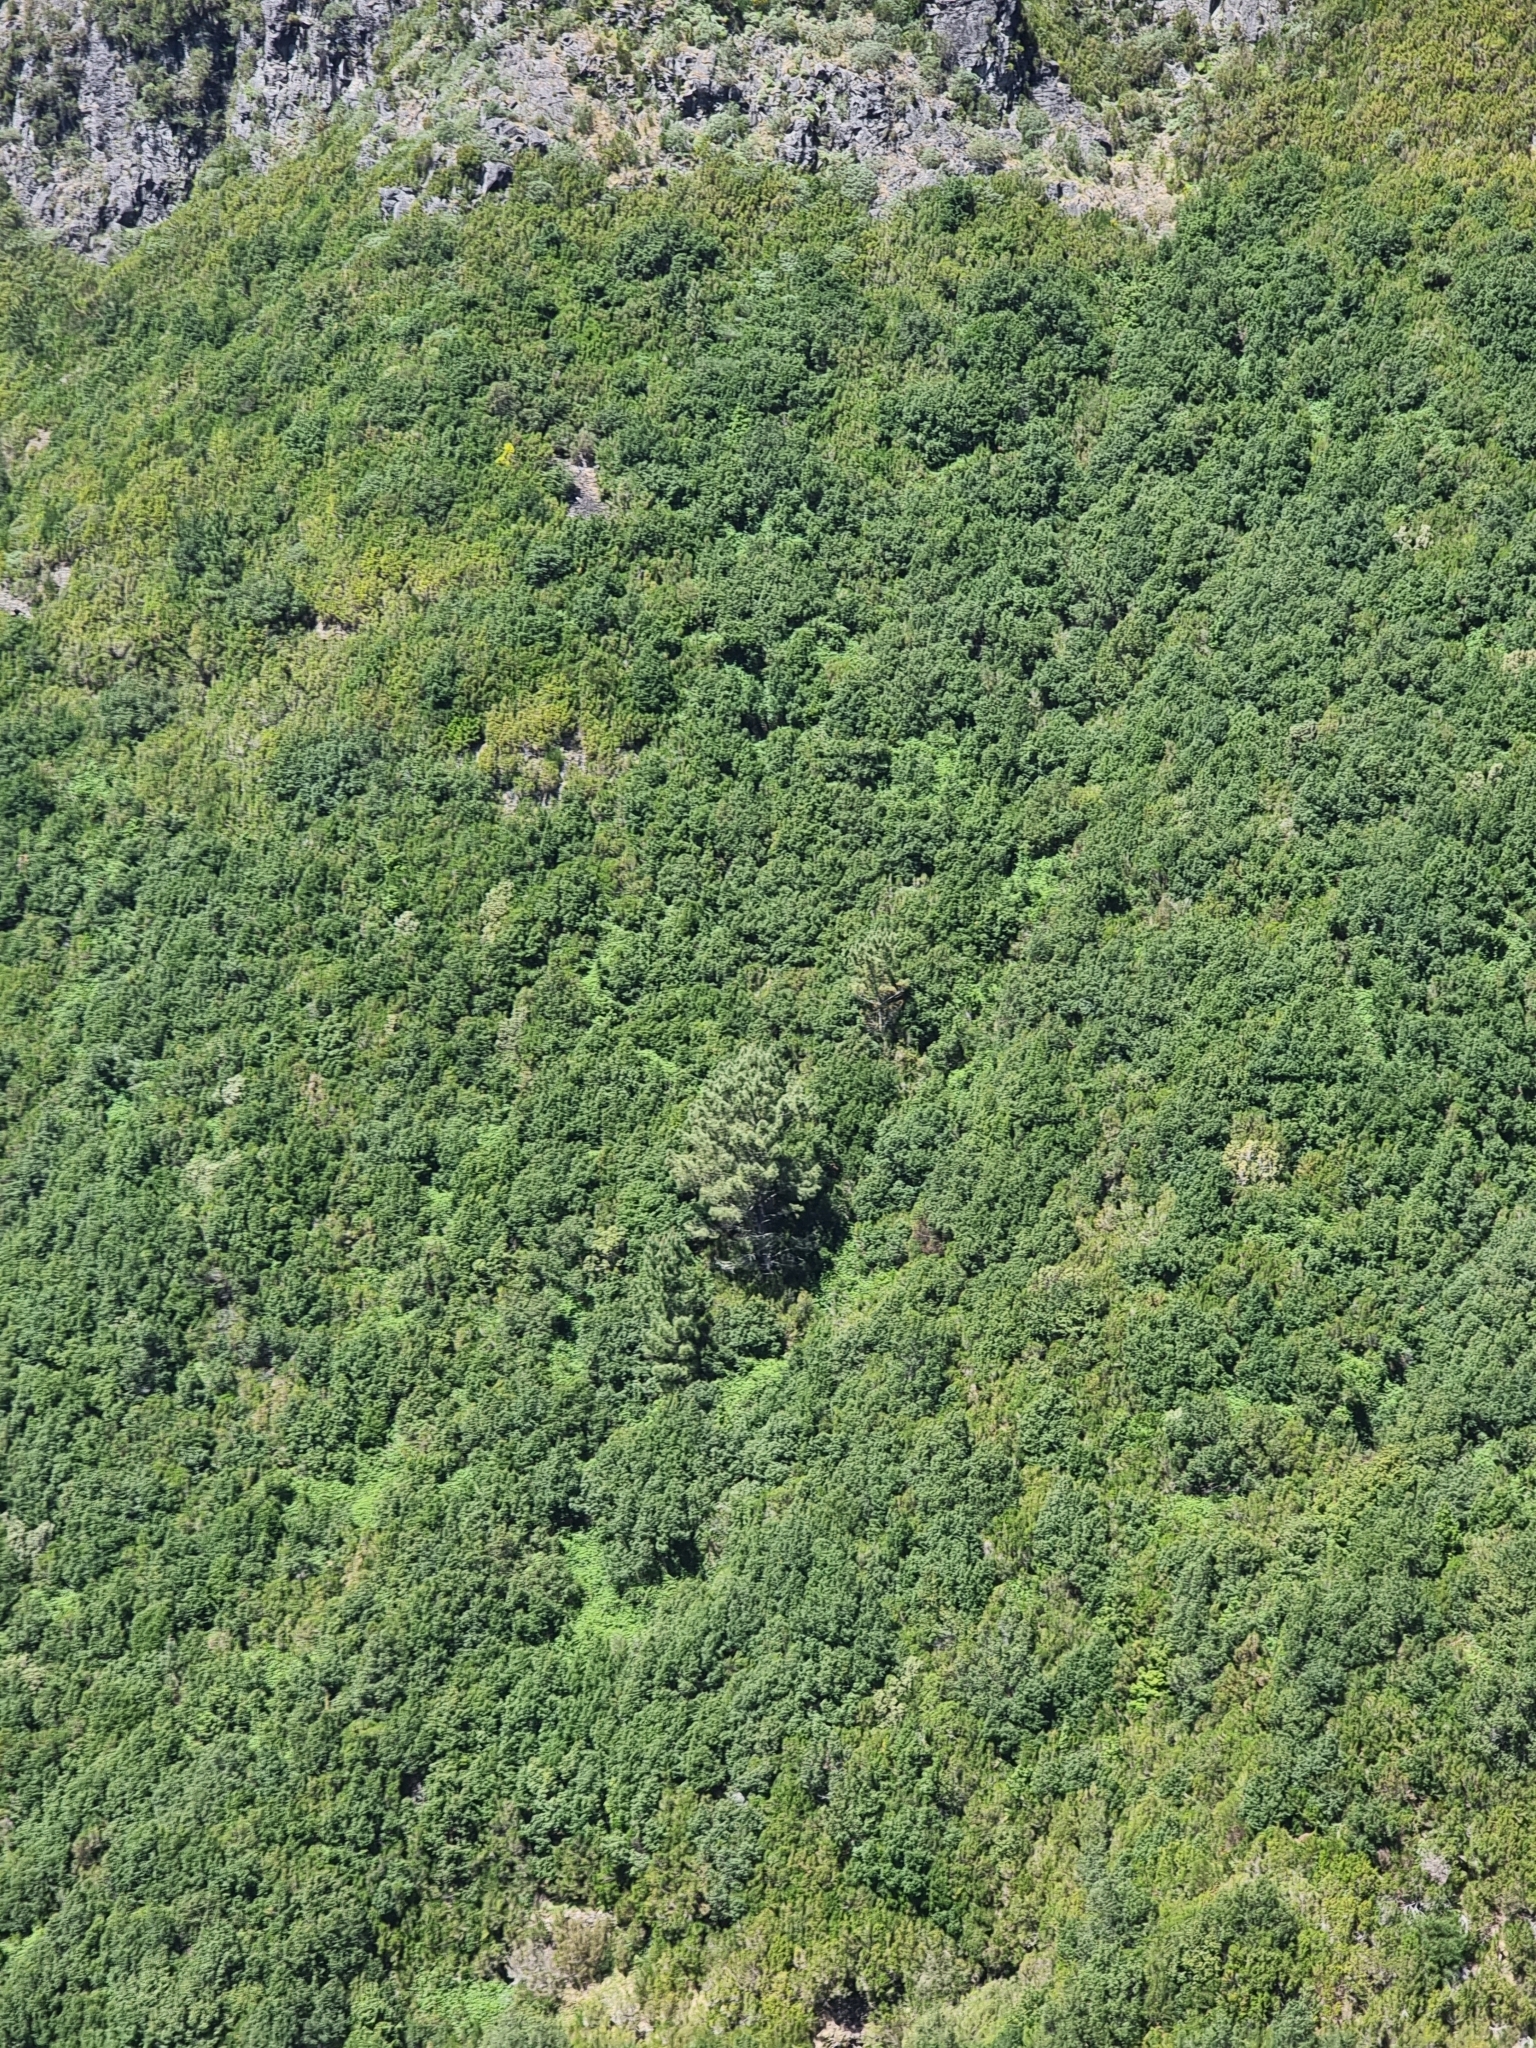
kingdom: Plantae
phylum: Tracheophyta
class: Pinopsida
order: Pinales
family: Pinaceae
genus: Pinus
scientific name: Pinus pinaster
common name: Maritime pine
